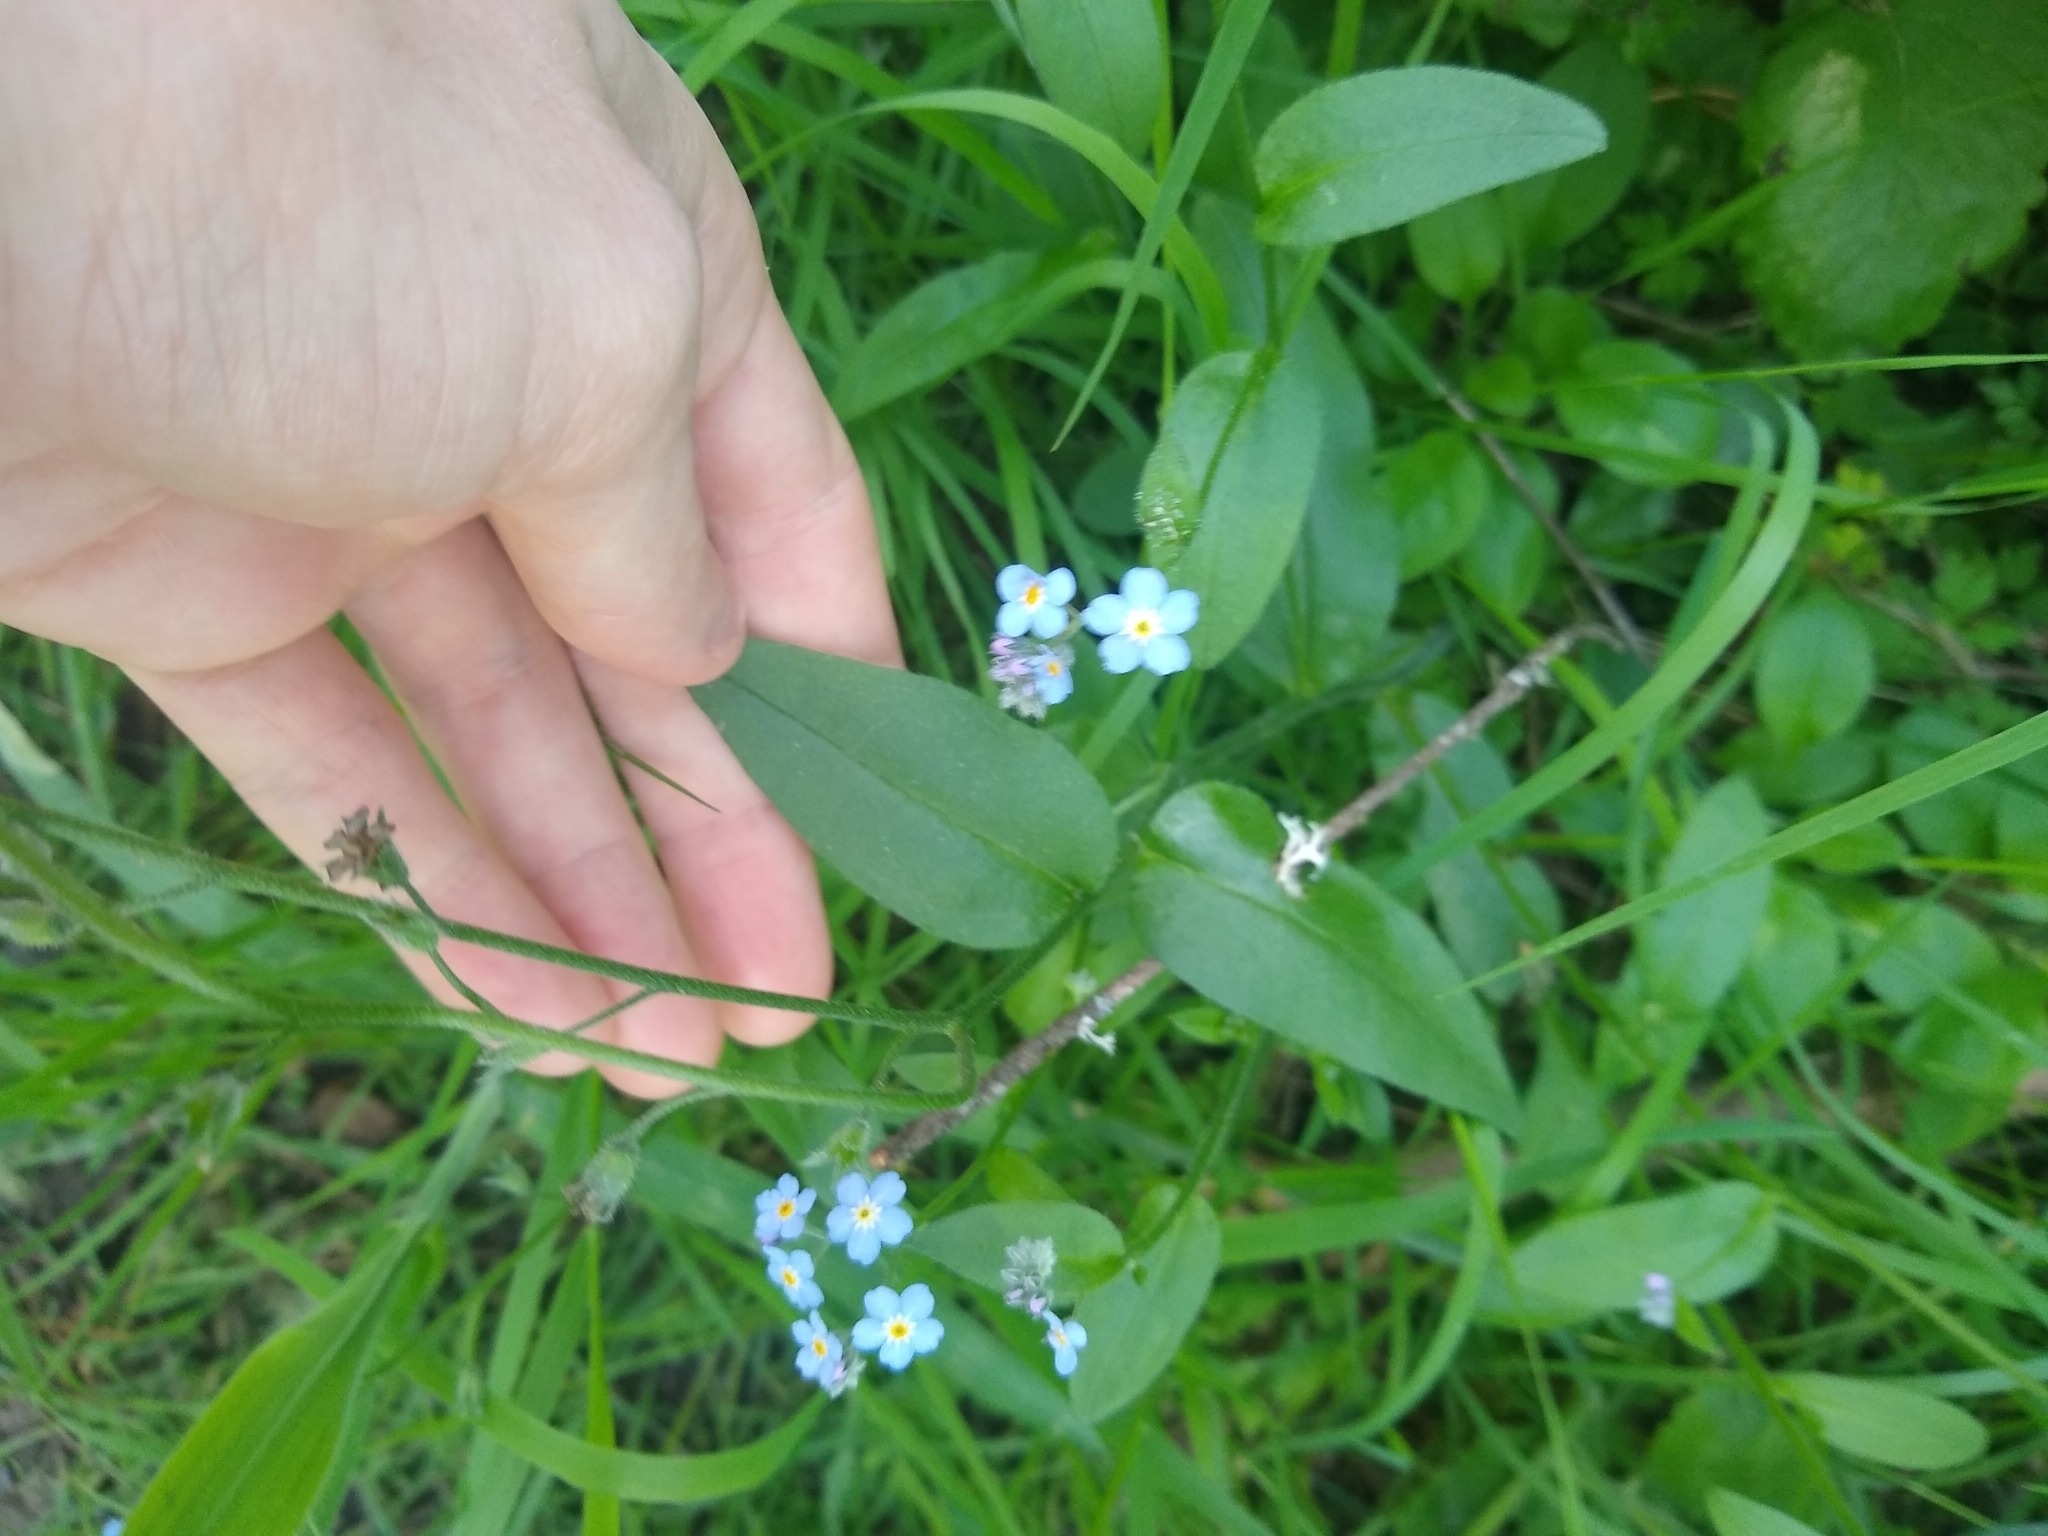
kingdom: Plantae
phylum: Tracheophyta
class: Magnoliopsida
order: Boraginales
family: Boraginaceae
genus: Myosotis
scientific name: Myosotis
